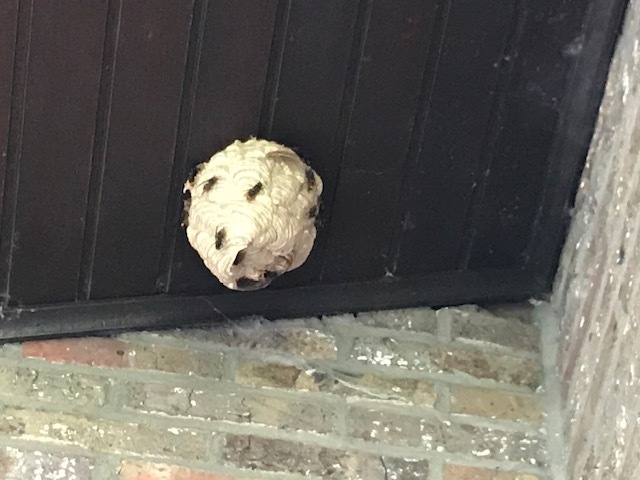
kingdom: Animalia
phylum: Arthropoda
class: Insecta
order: Hymenoptera
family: Vespidae
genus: Vespa
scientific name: Vespa velutina
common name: Asian hornet
